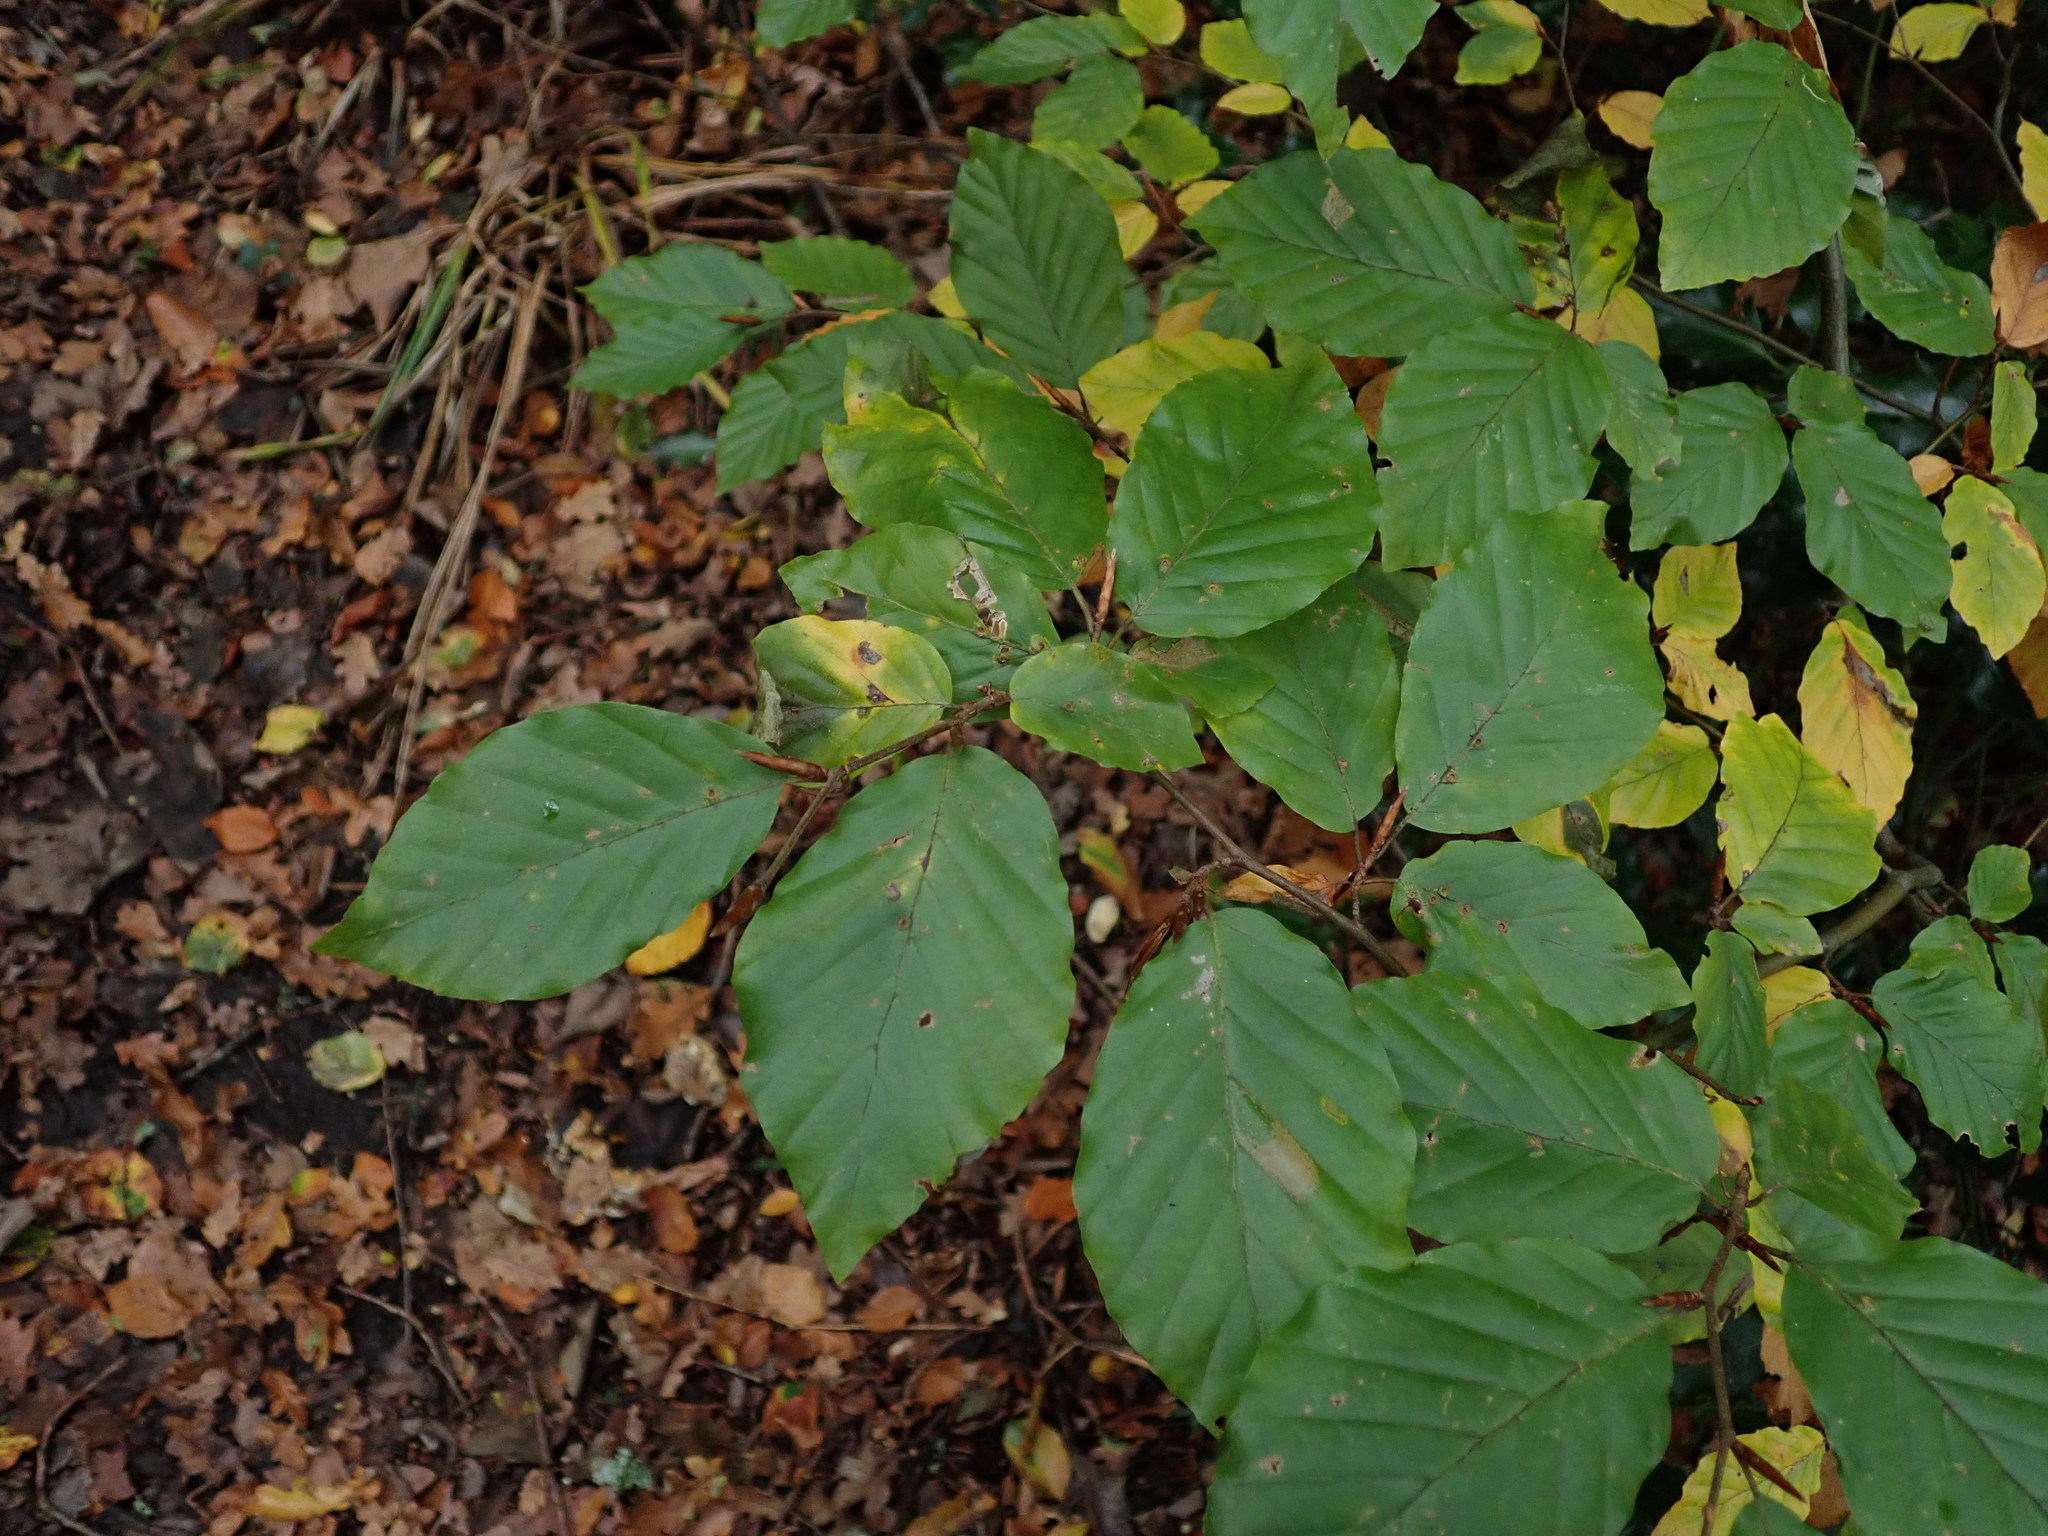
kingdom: Plantae
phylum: Tracheophyta
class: Magnoliopsida
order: Fagales
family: Fagaceae
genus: Fagus
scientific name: Fagus sylvatica
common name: Beech
